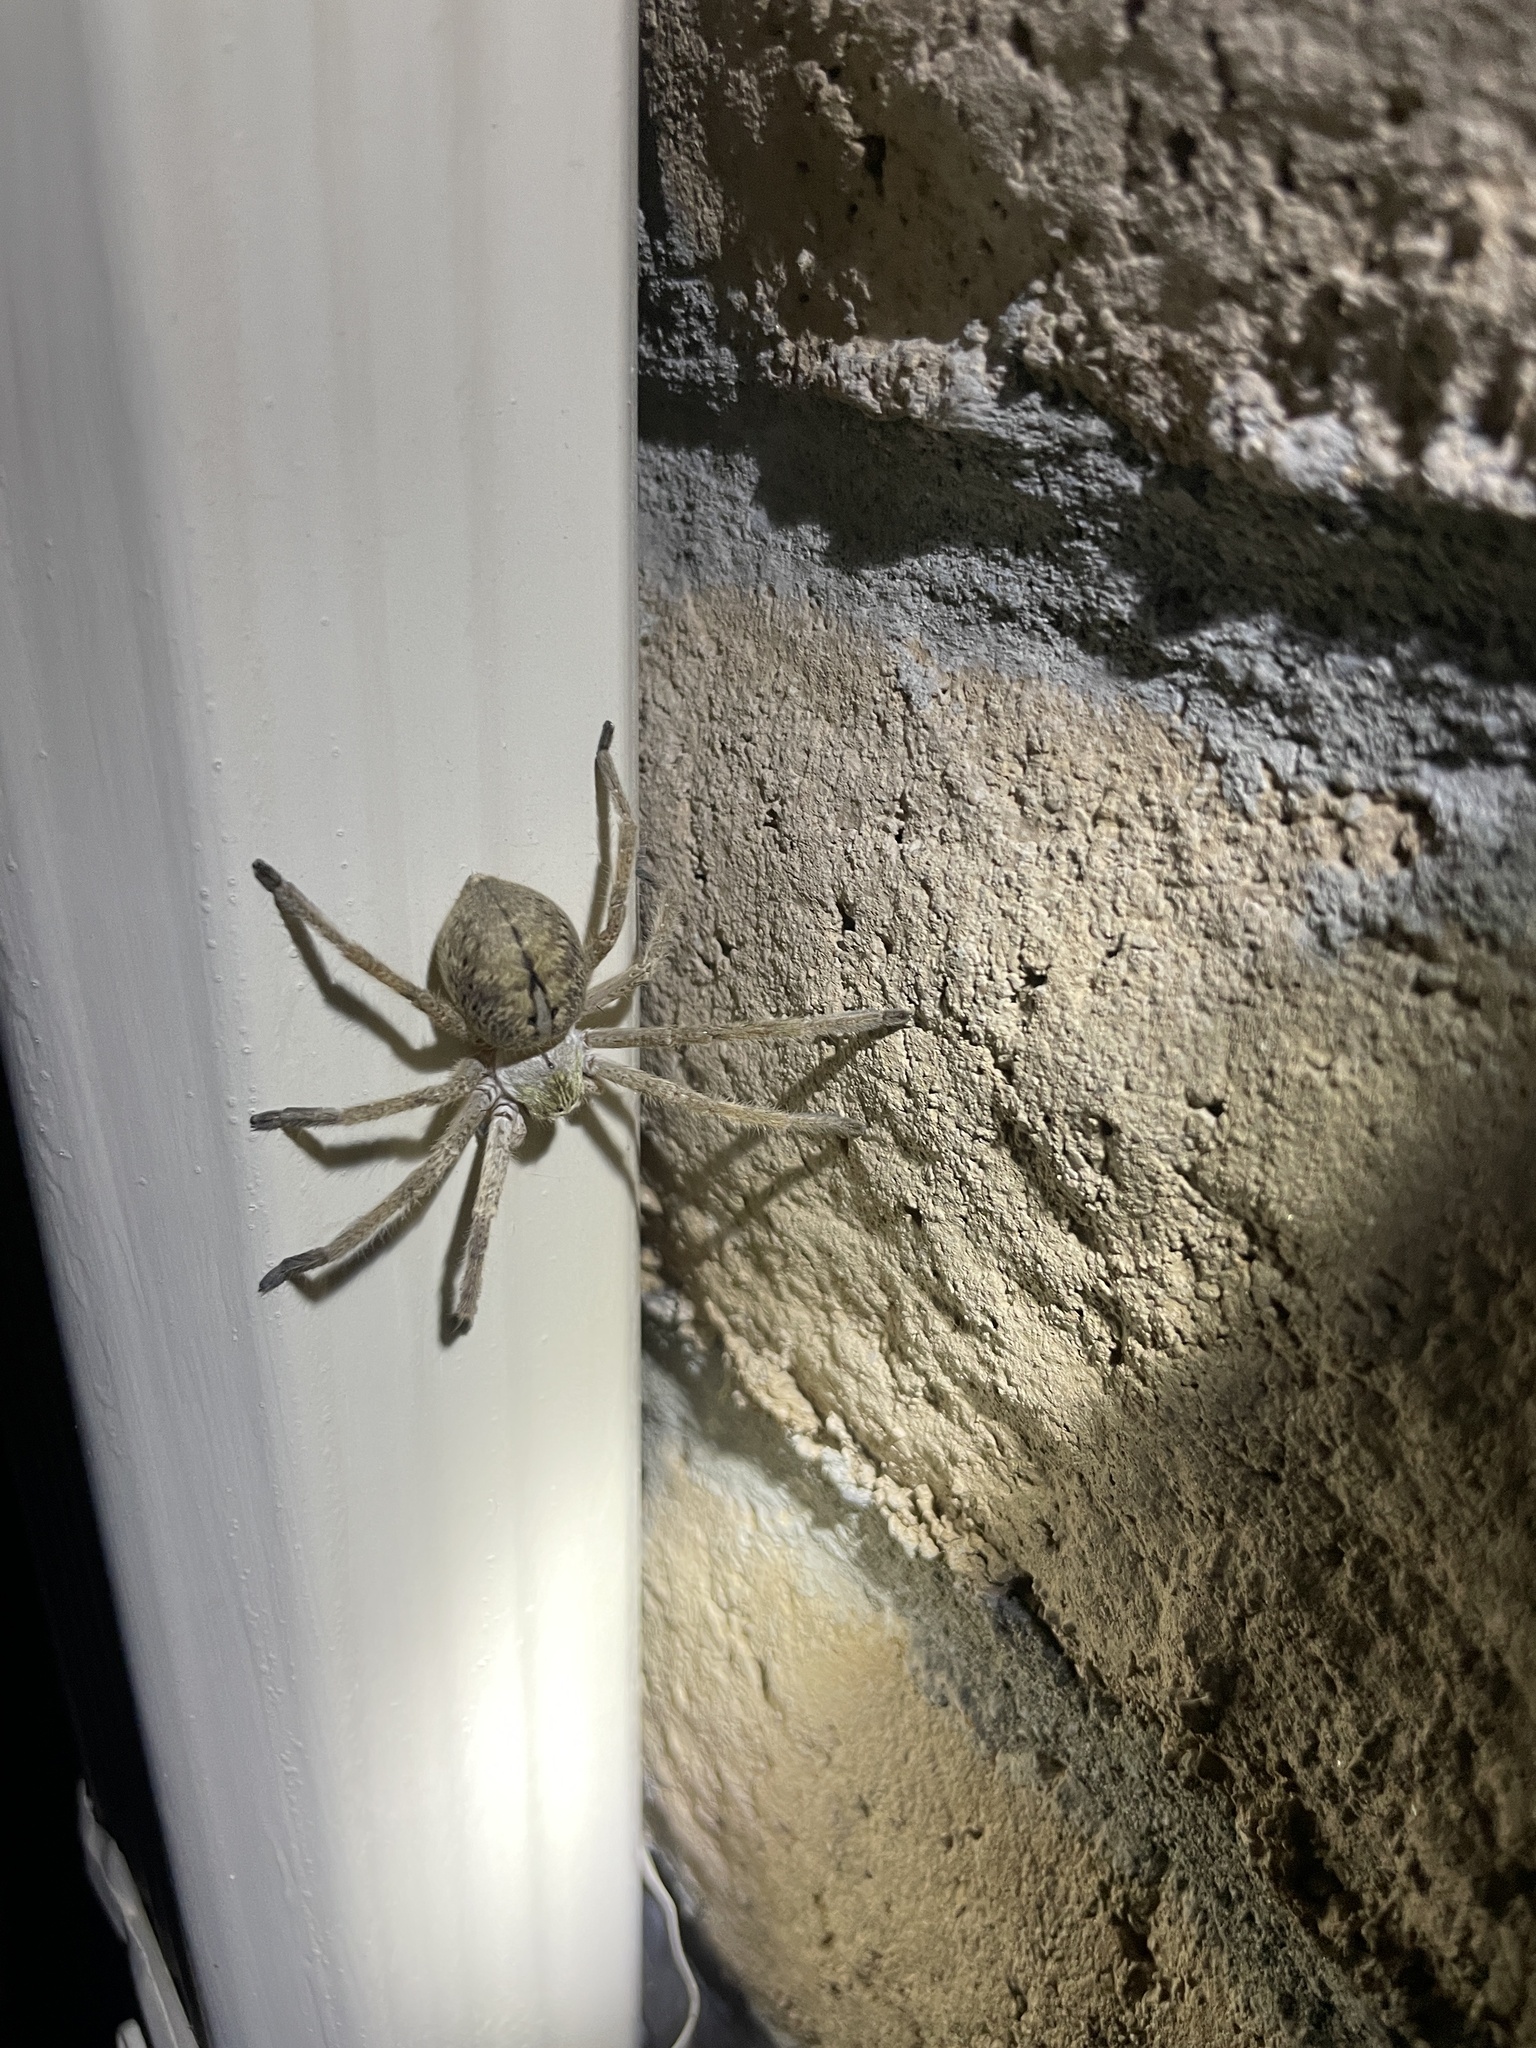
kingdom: Animalia
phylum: Arthropoda
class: Arachnida
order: Araneae
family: Sparassidae
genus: Olios
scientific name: Olios giganteus
